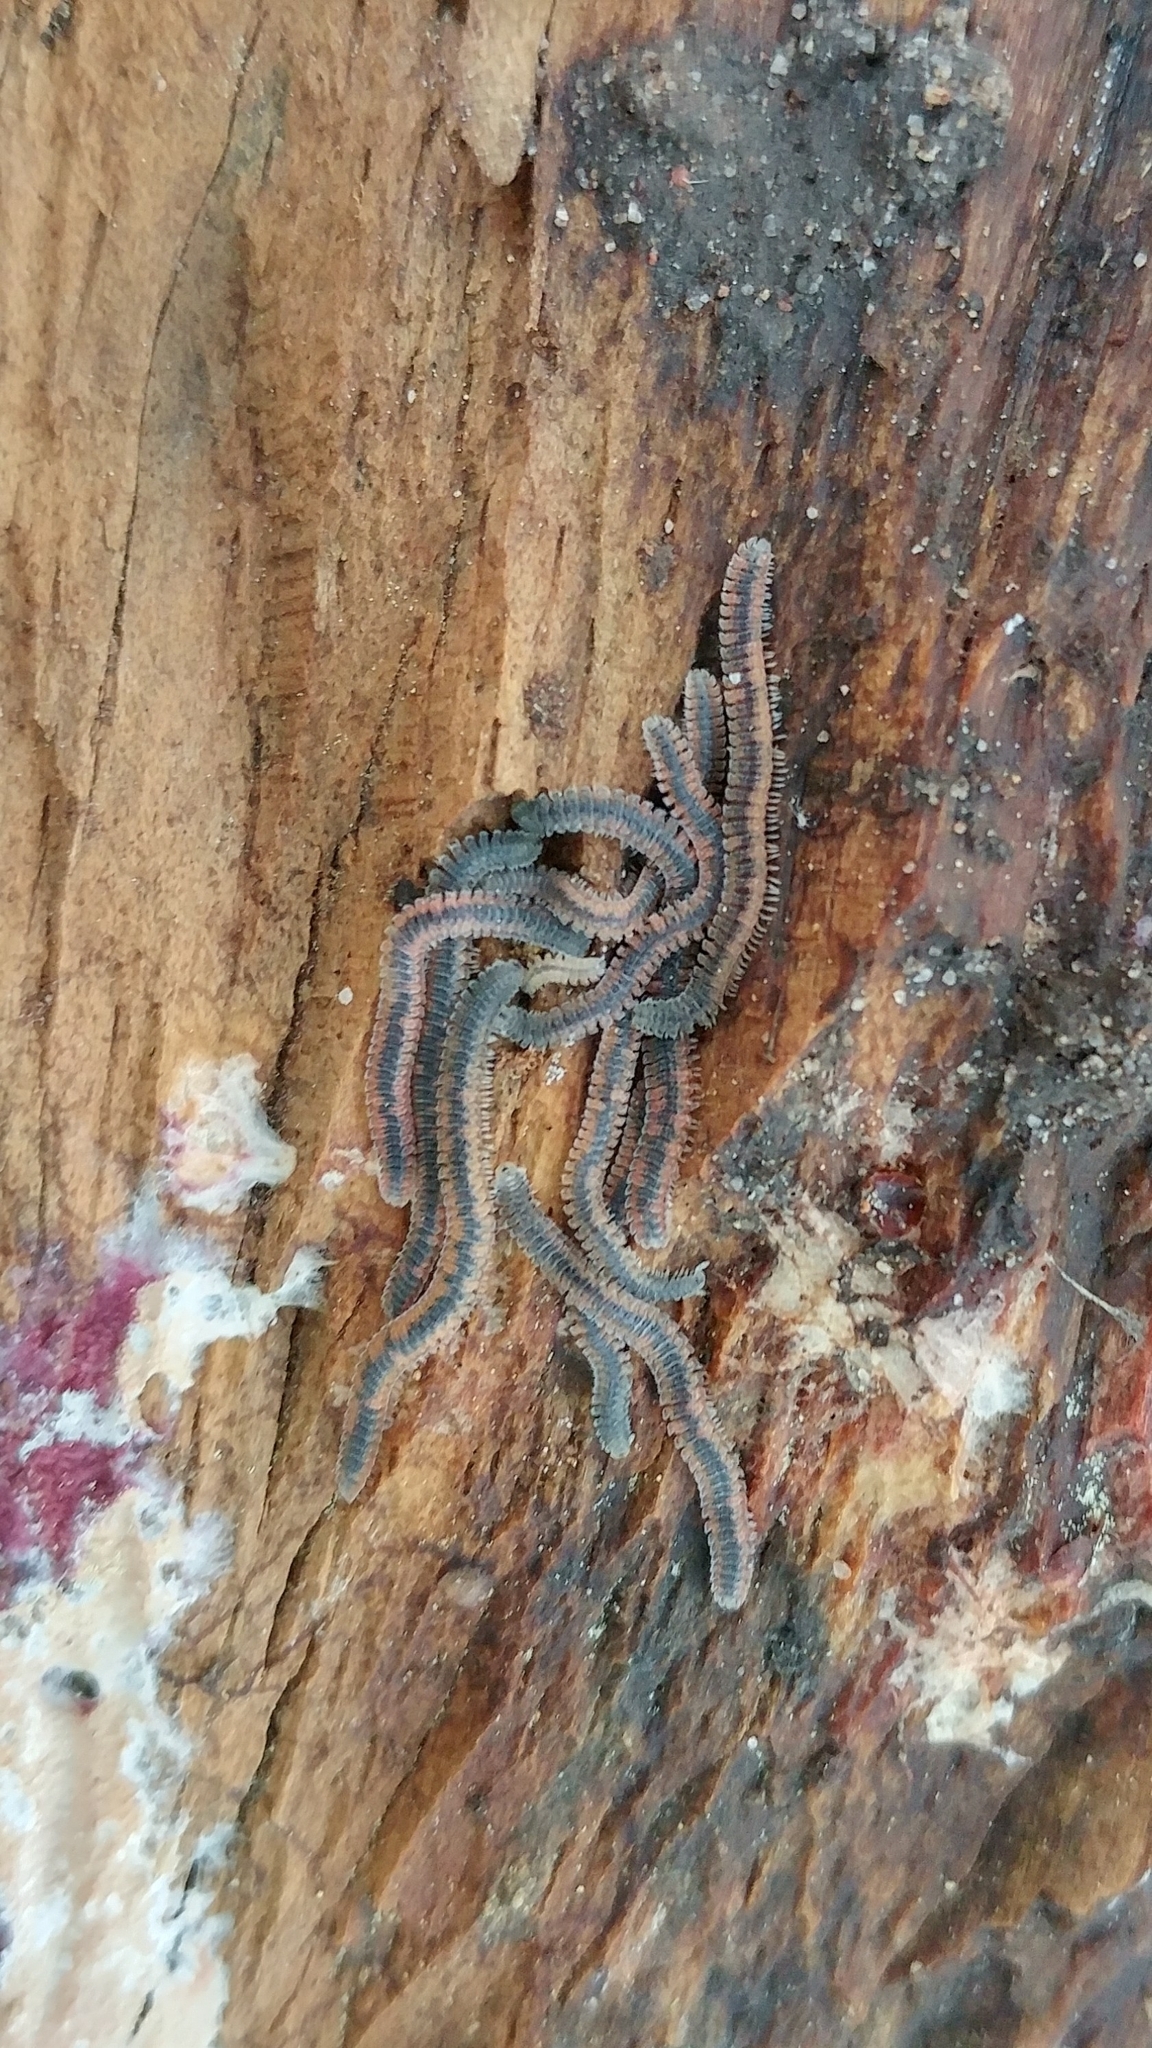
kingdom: Animalia
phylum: Arthropoda
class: Diplopoda
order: Platydesmida
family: Andrognathidae
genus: Gosodesmus
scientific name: Gosodesmus claremontus
